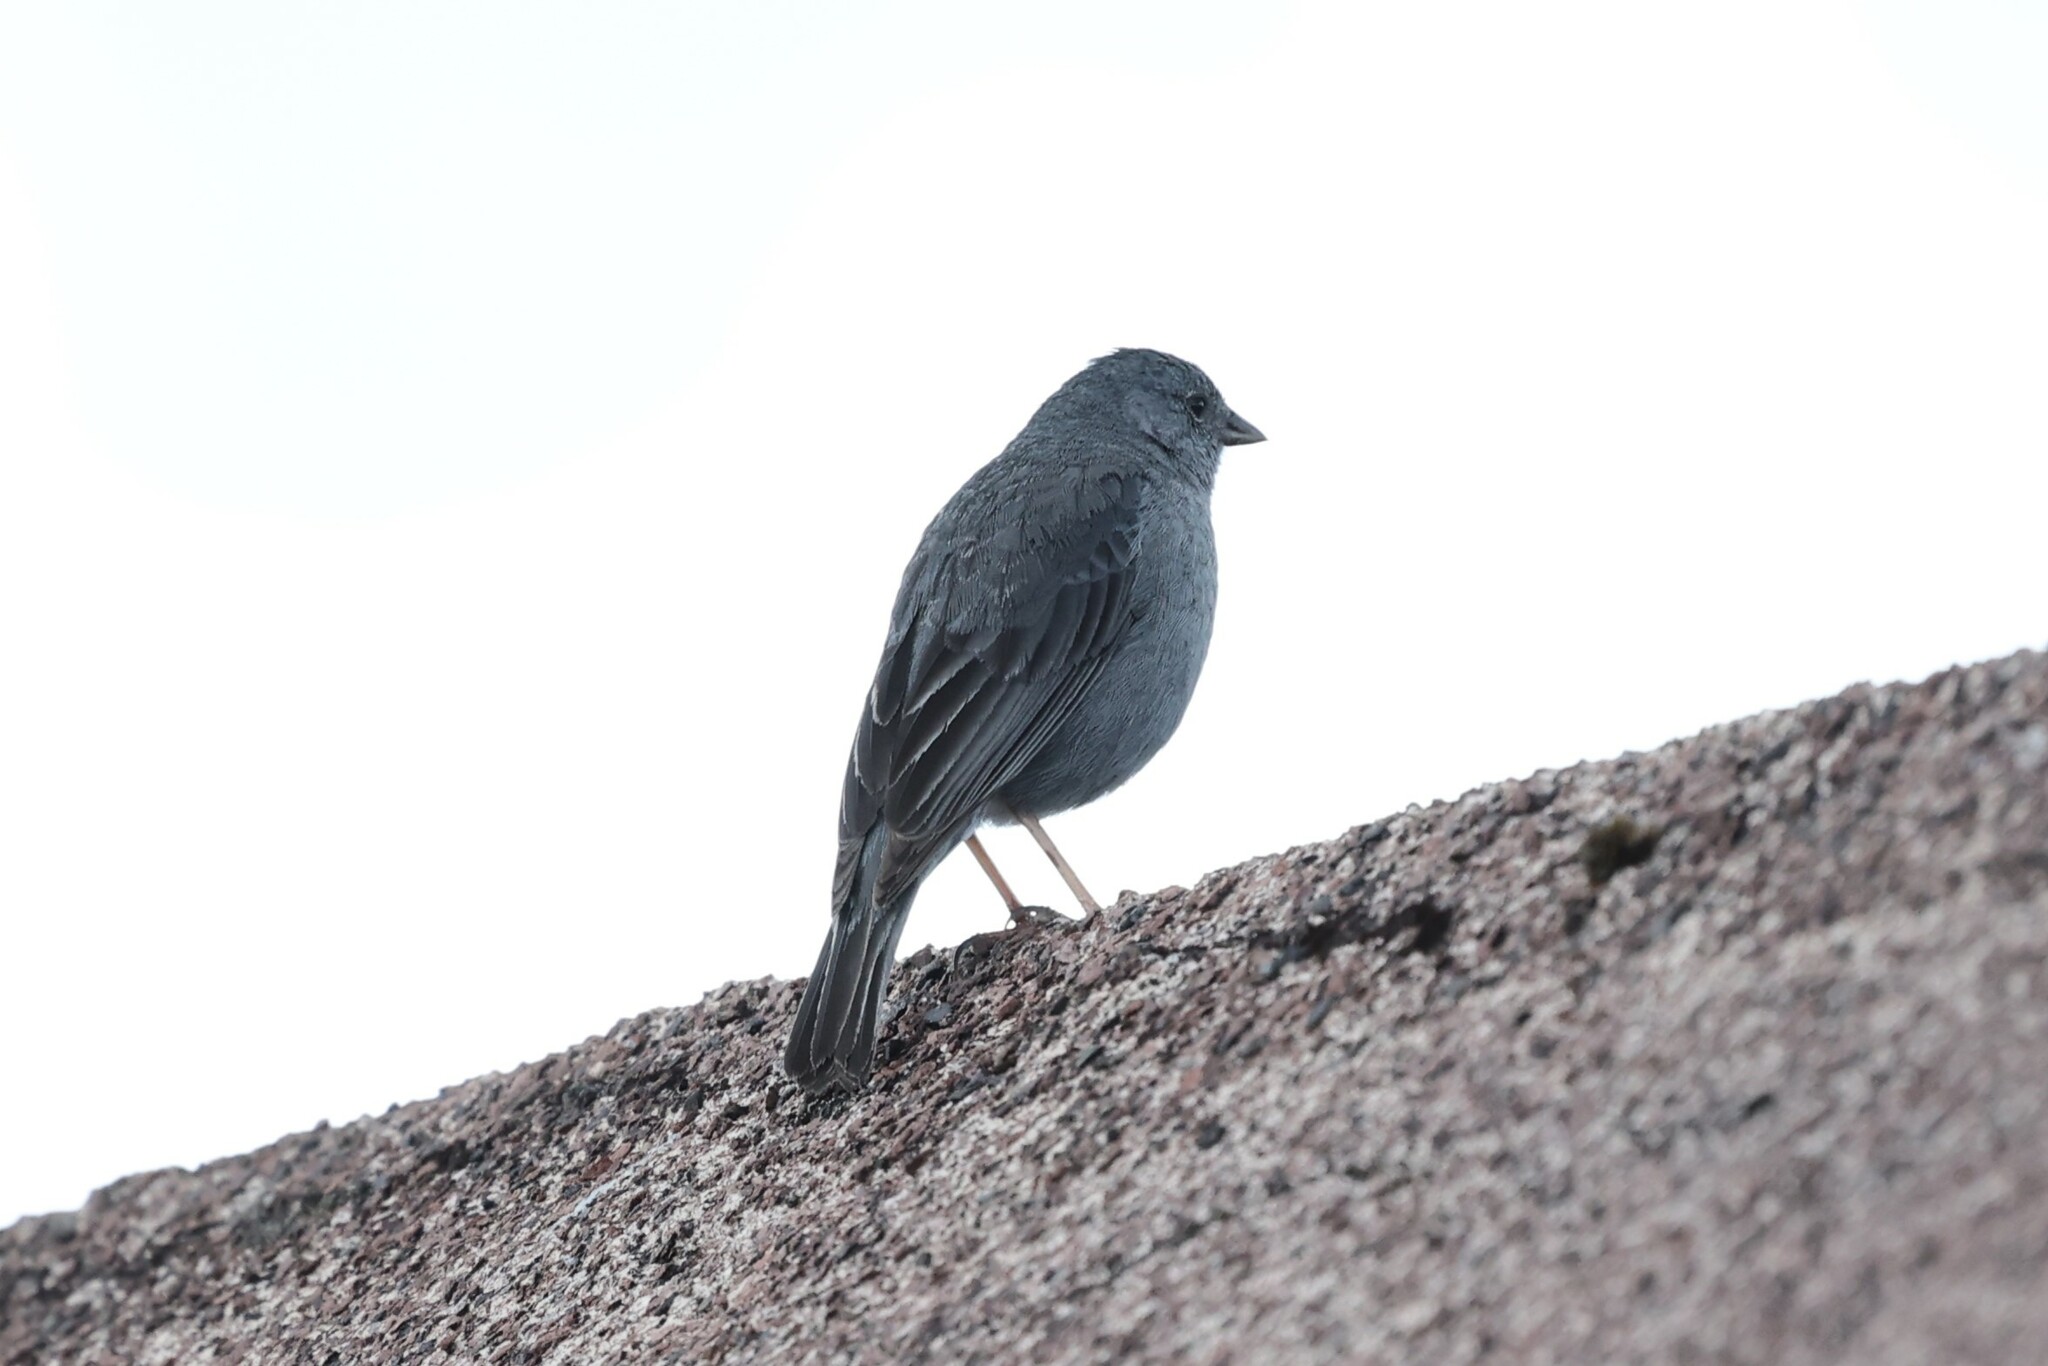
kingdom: Animalia
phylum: Chordata
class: Aves
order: Passeriformes
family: Thraupidae
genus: Geospizopsis
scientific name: Geospizopsis unicolor
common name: Plumbeous sierra-finch
